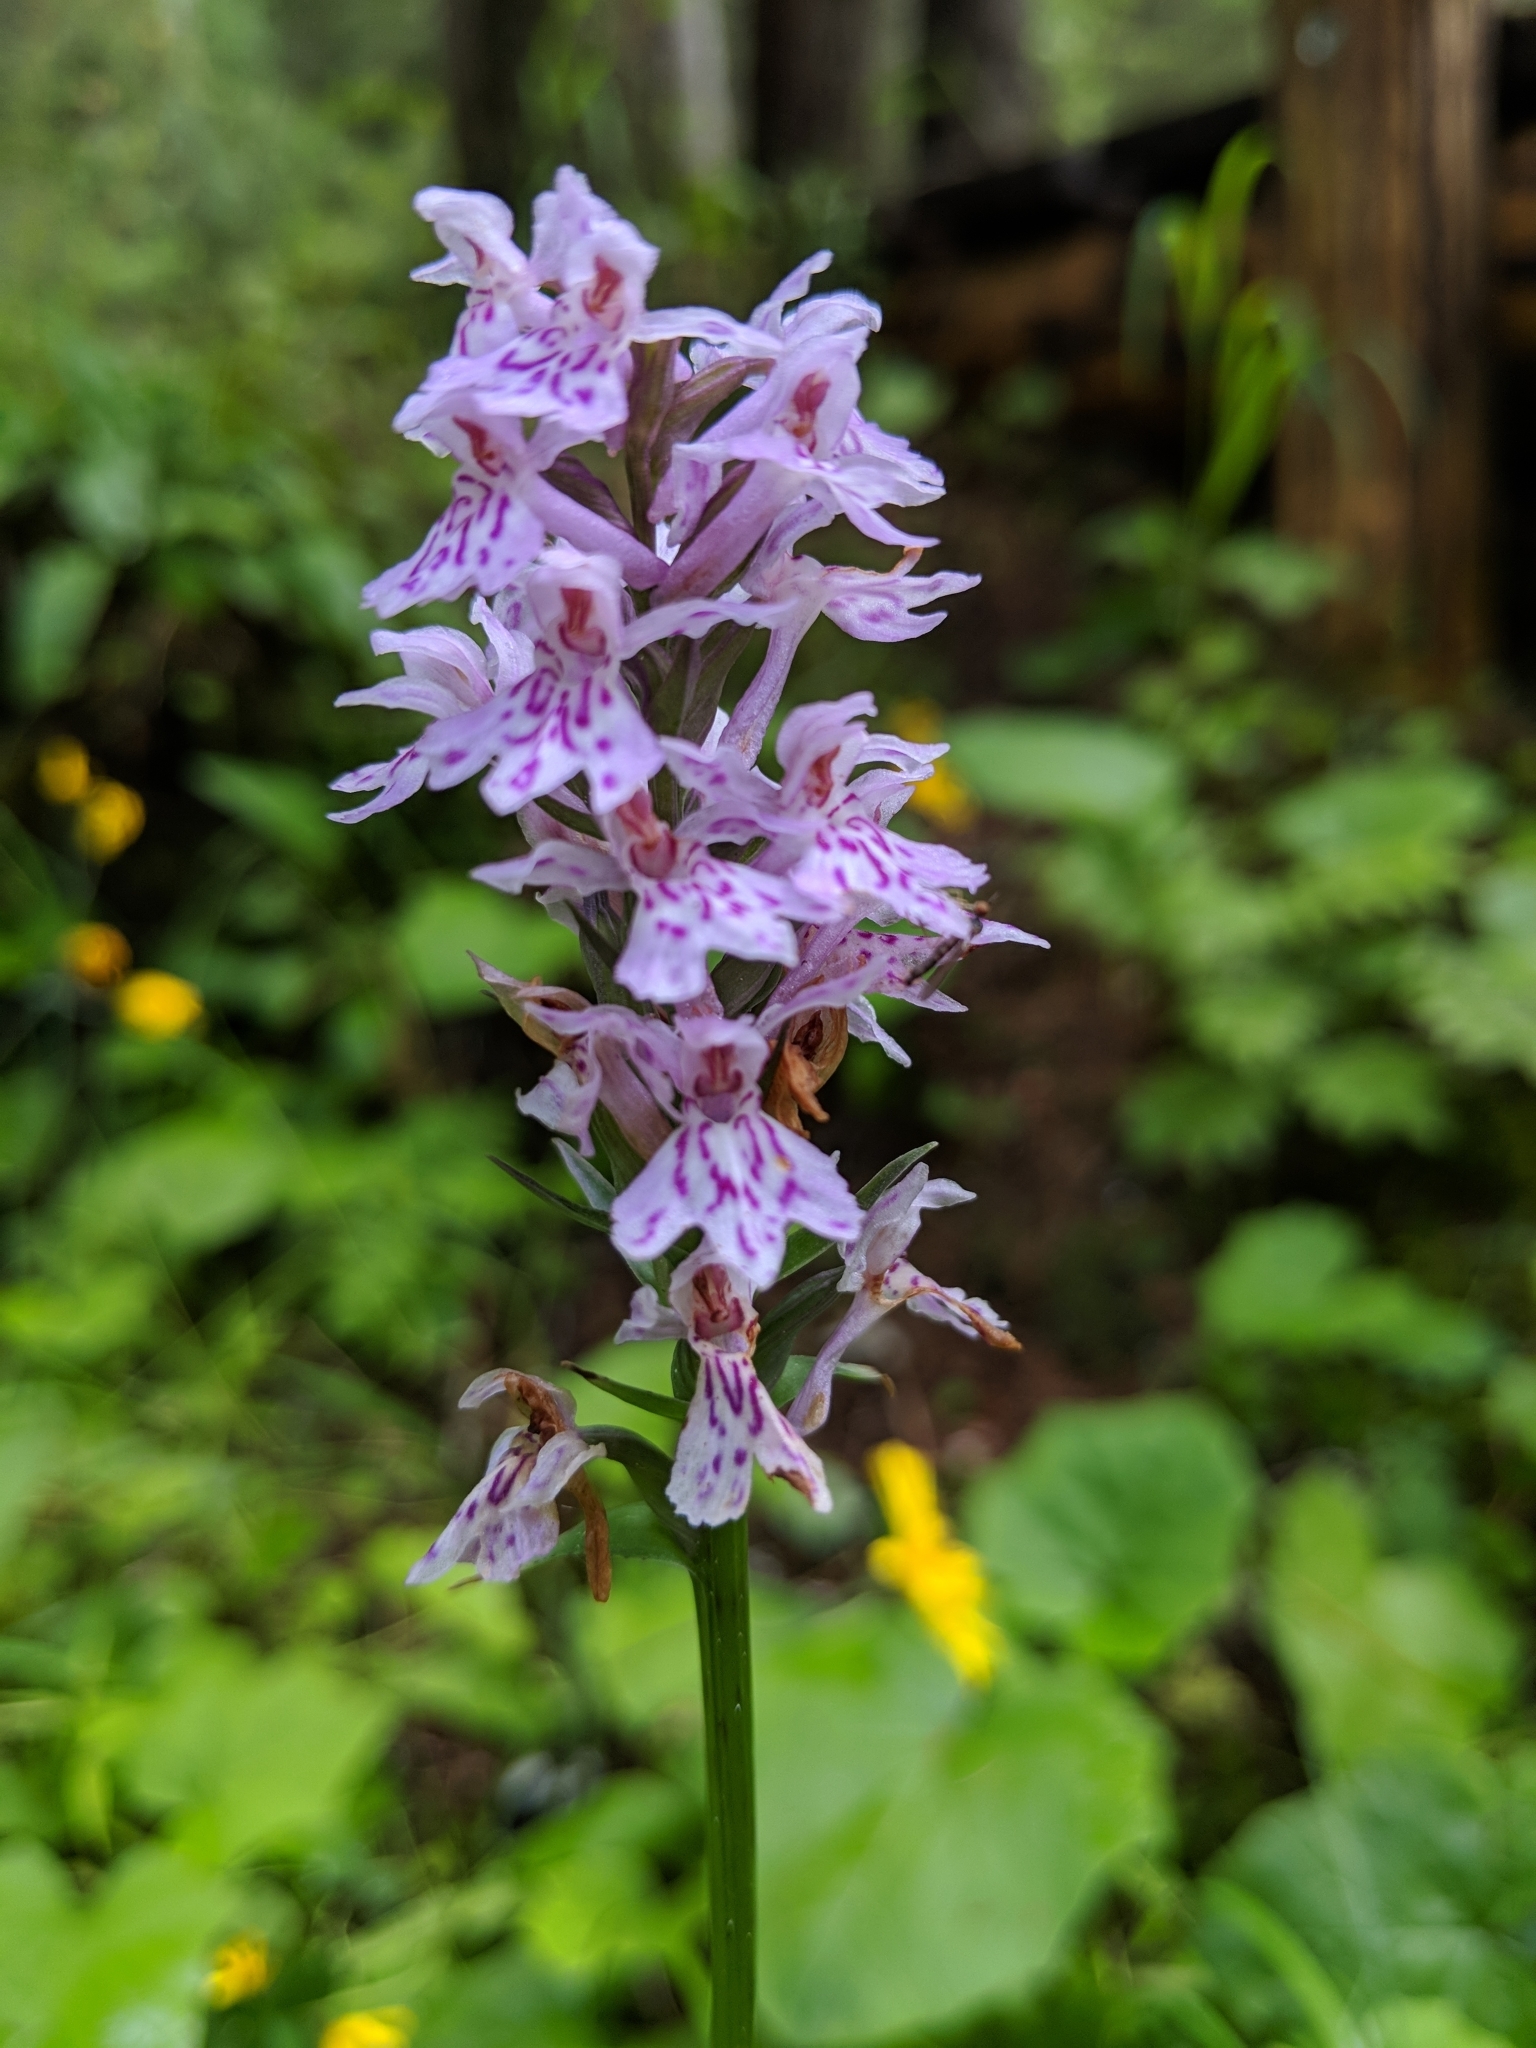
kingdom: Plantae
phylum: Tracheophyta
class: Liliopsida
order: Asparagales
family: Orchidaceae
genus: Dactylorhiza
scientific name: Dactylorhiza maculata
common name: Heath spotted-orchid
